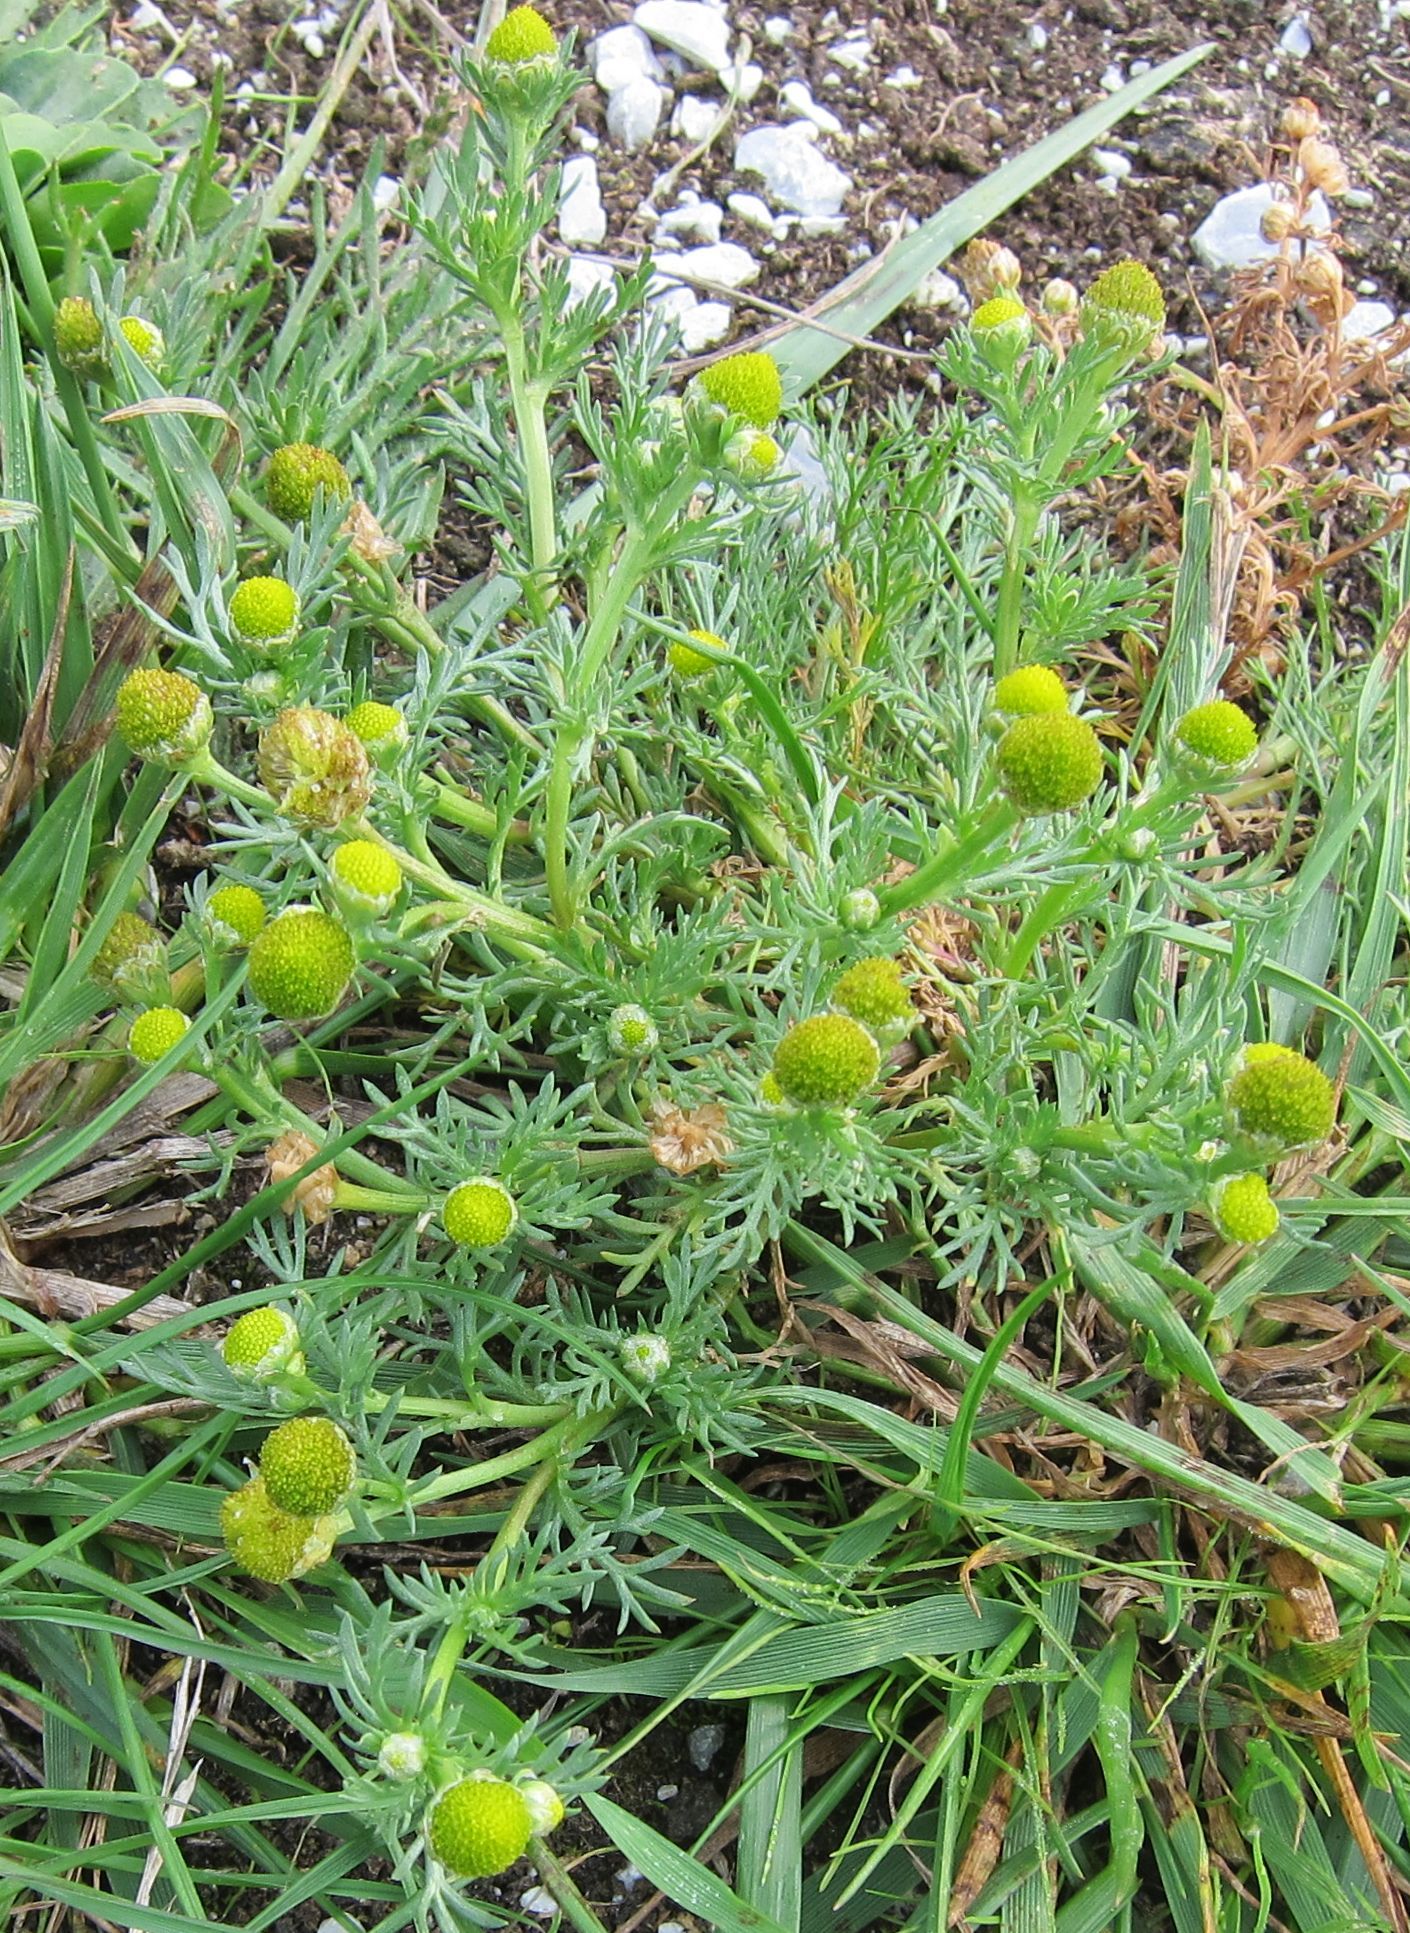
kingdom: Plantae
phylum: Tracheophyta
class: Magnoliopsida
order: Asterales
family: Asteraceae
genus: Matricaria
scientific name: Matricaria discoidea
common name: Disc mayweed
